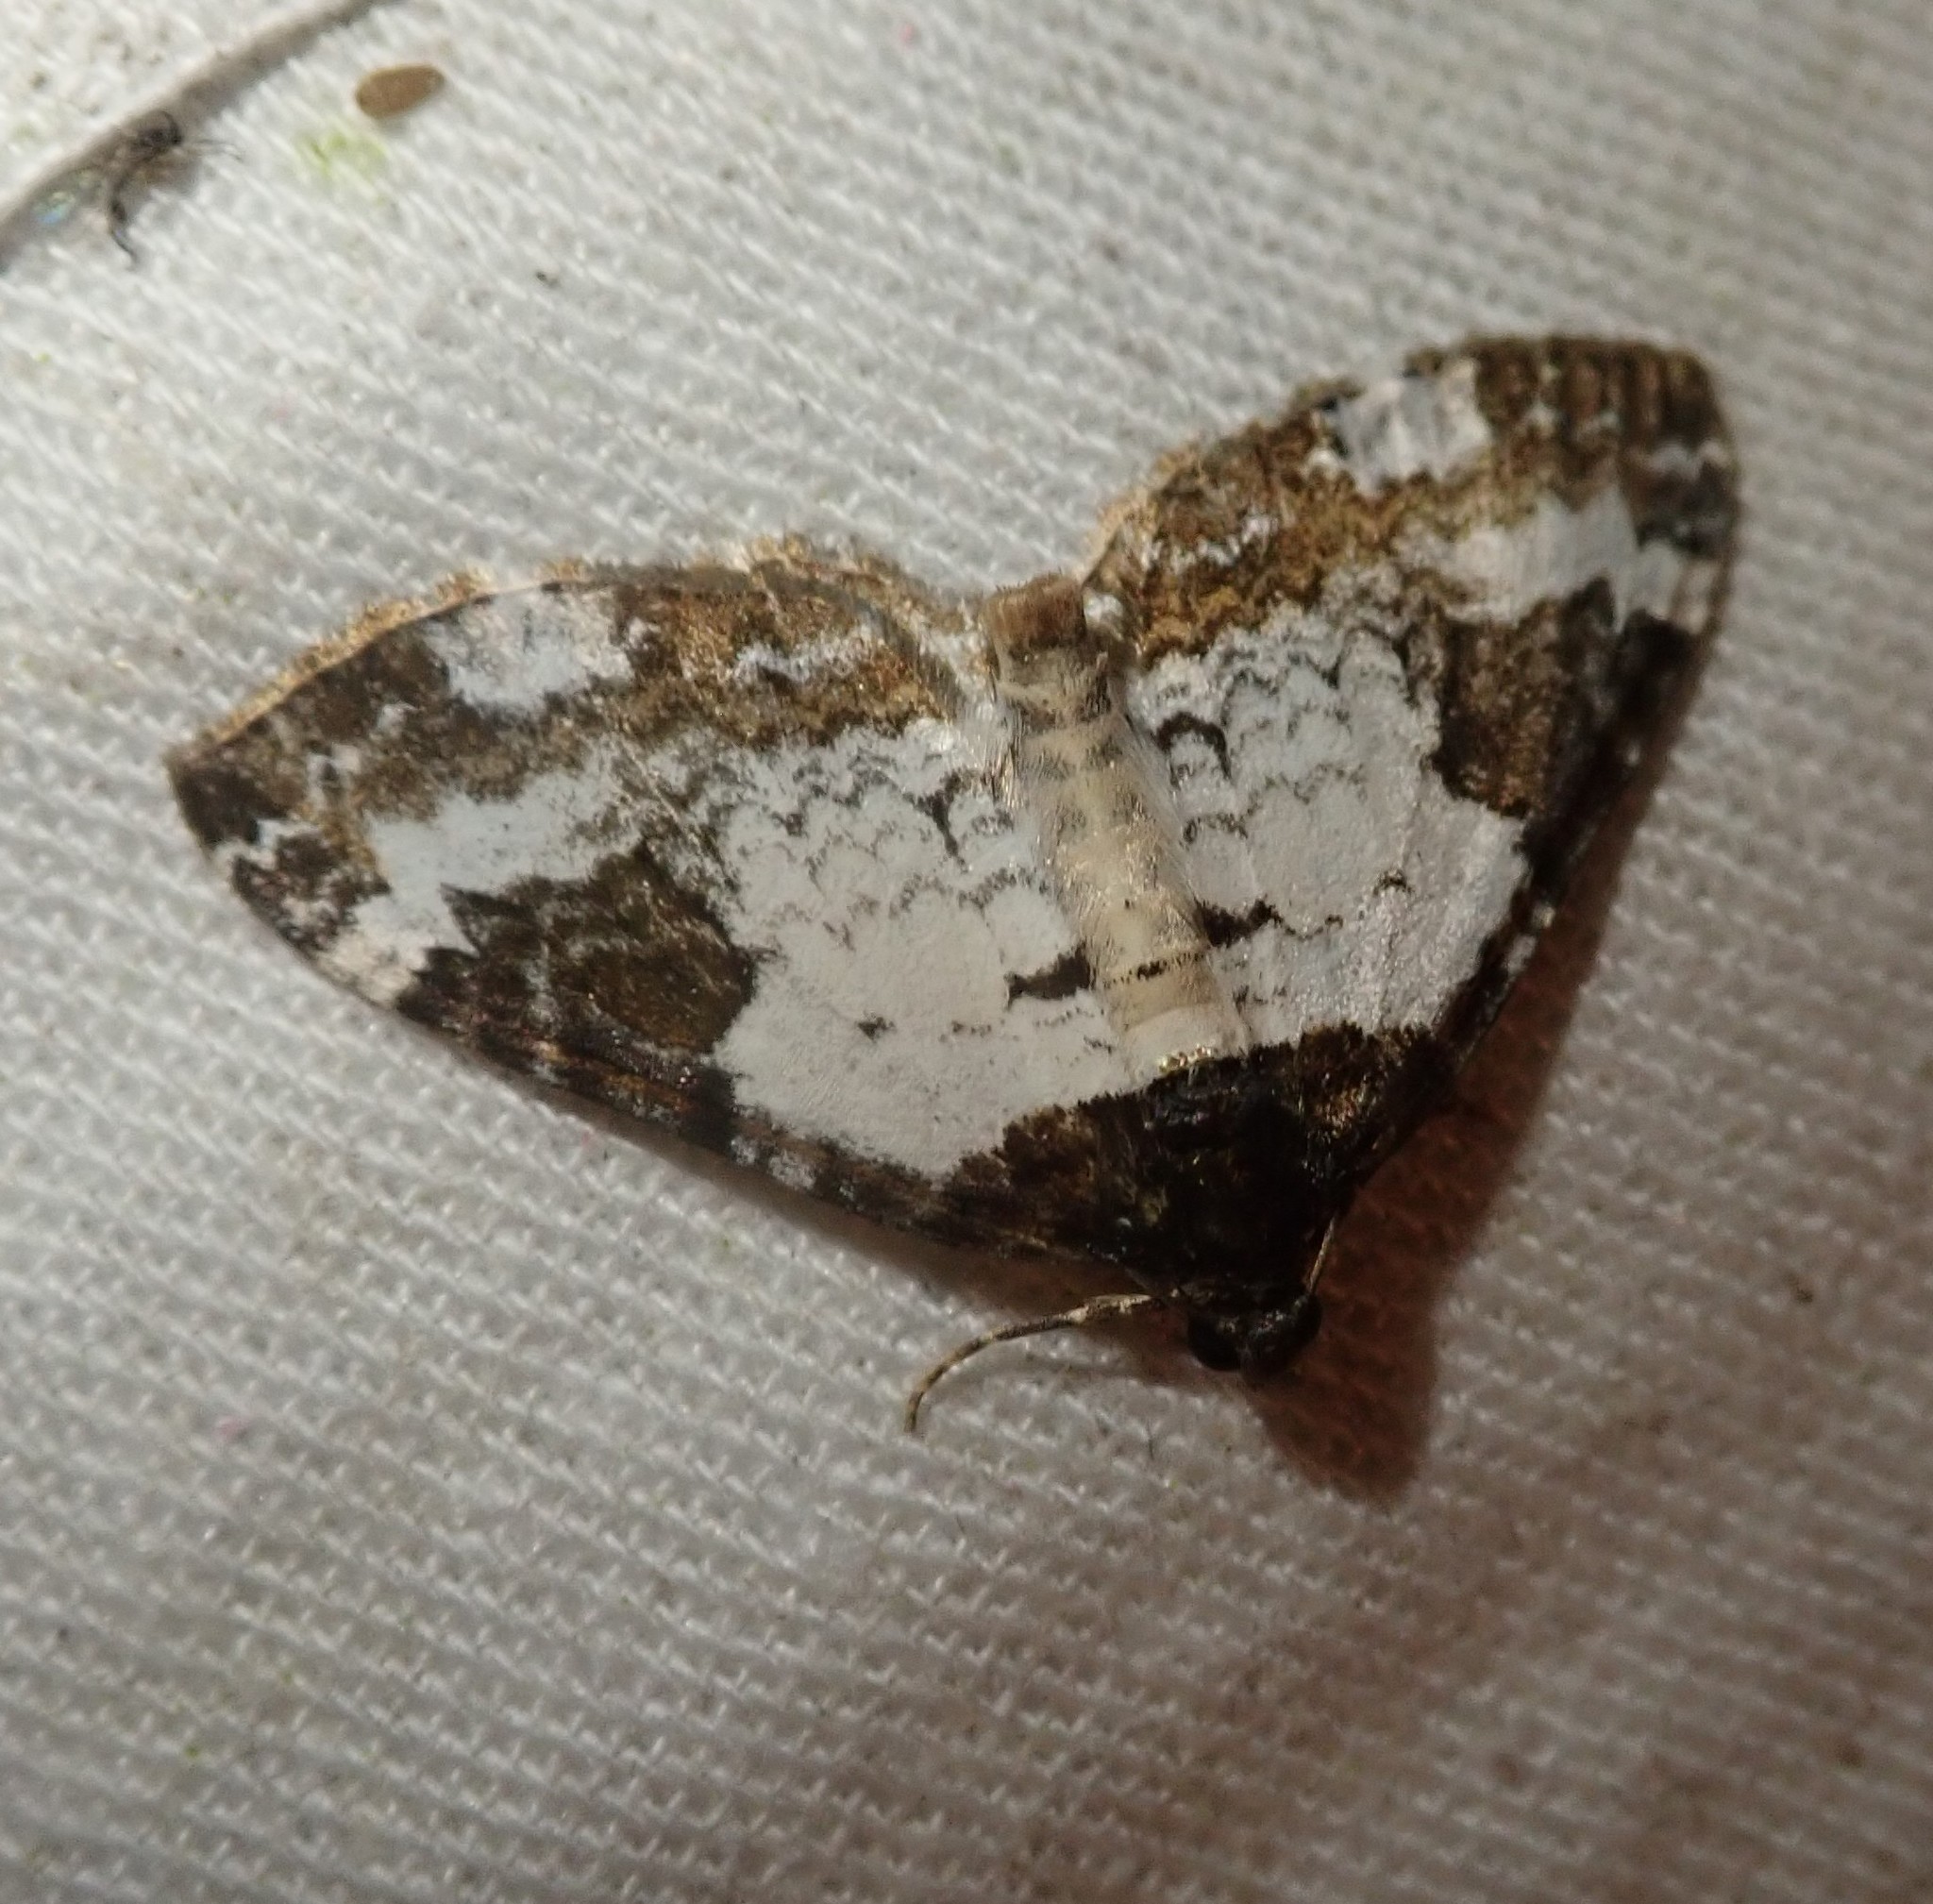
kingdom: Animalia
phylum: Arthropoda
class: Insecta
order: Lepidoptera
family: Geometridae
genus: Melanthia
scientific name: Melanthia procellata
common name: Pretty chalk carpet
